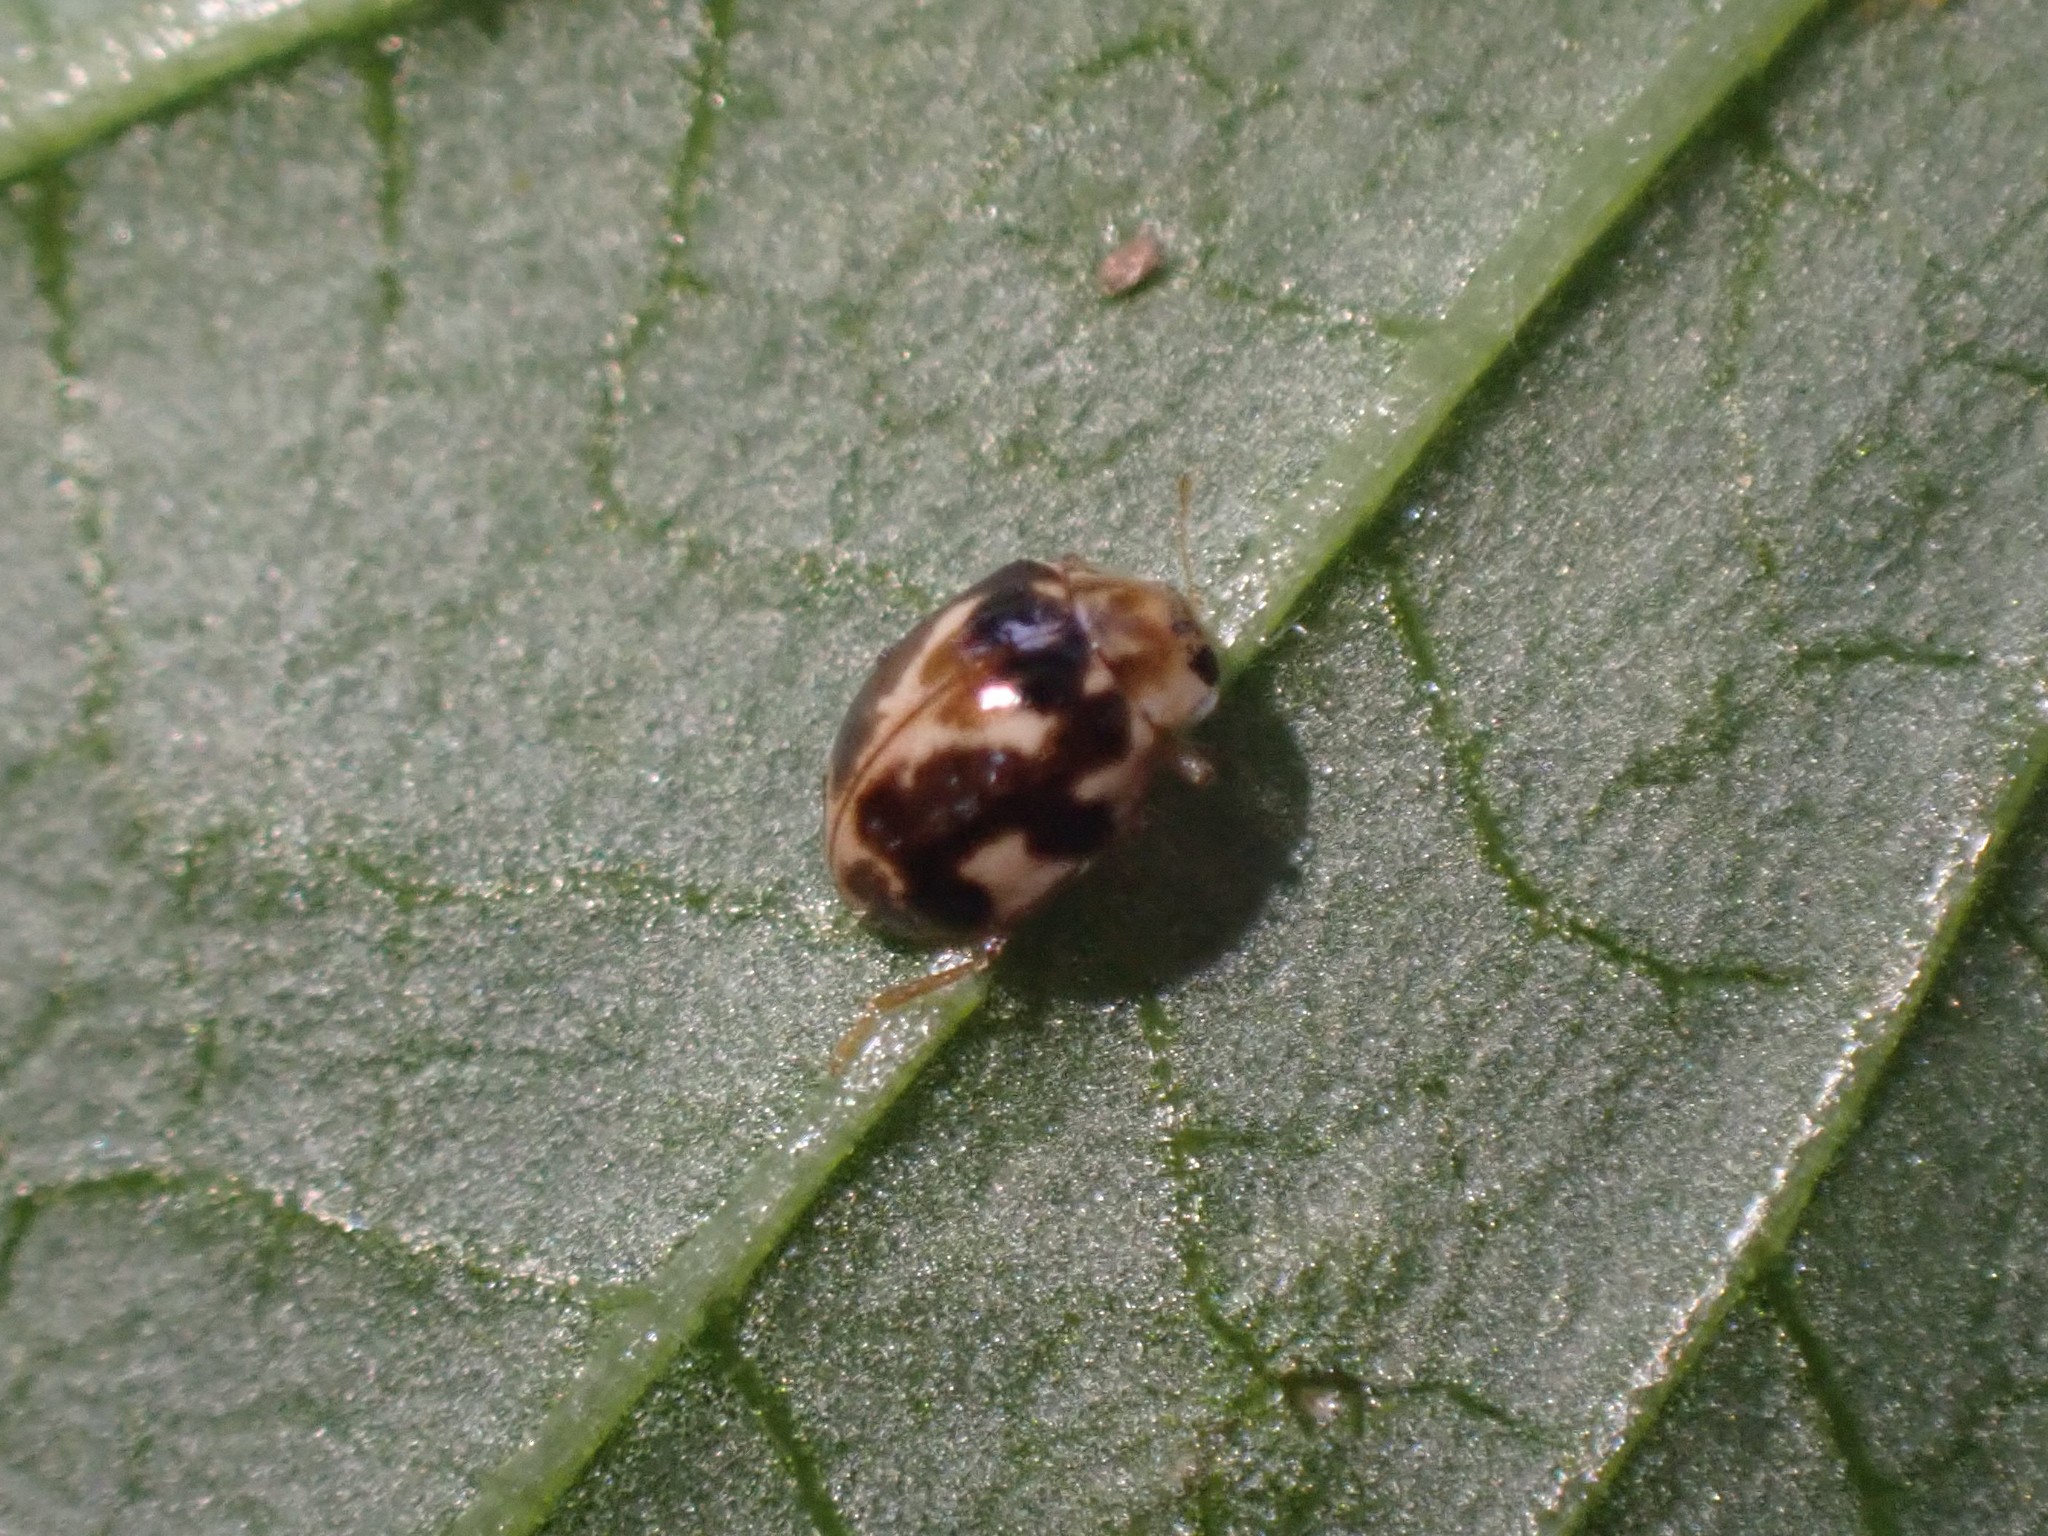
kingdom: Animalia
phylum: Arthropoda
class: Insecta
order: Coleoptera
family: Coccinellidae
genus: Psyllobora
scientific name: Psyllobora vigintimaculata
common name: Ladybird beetle
